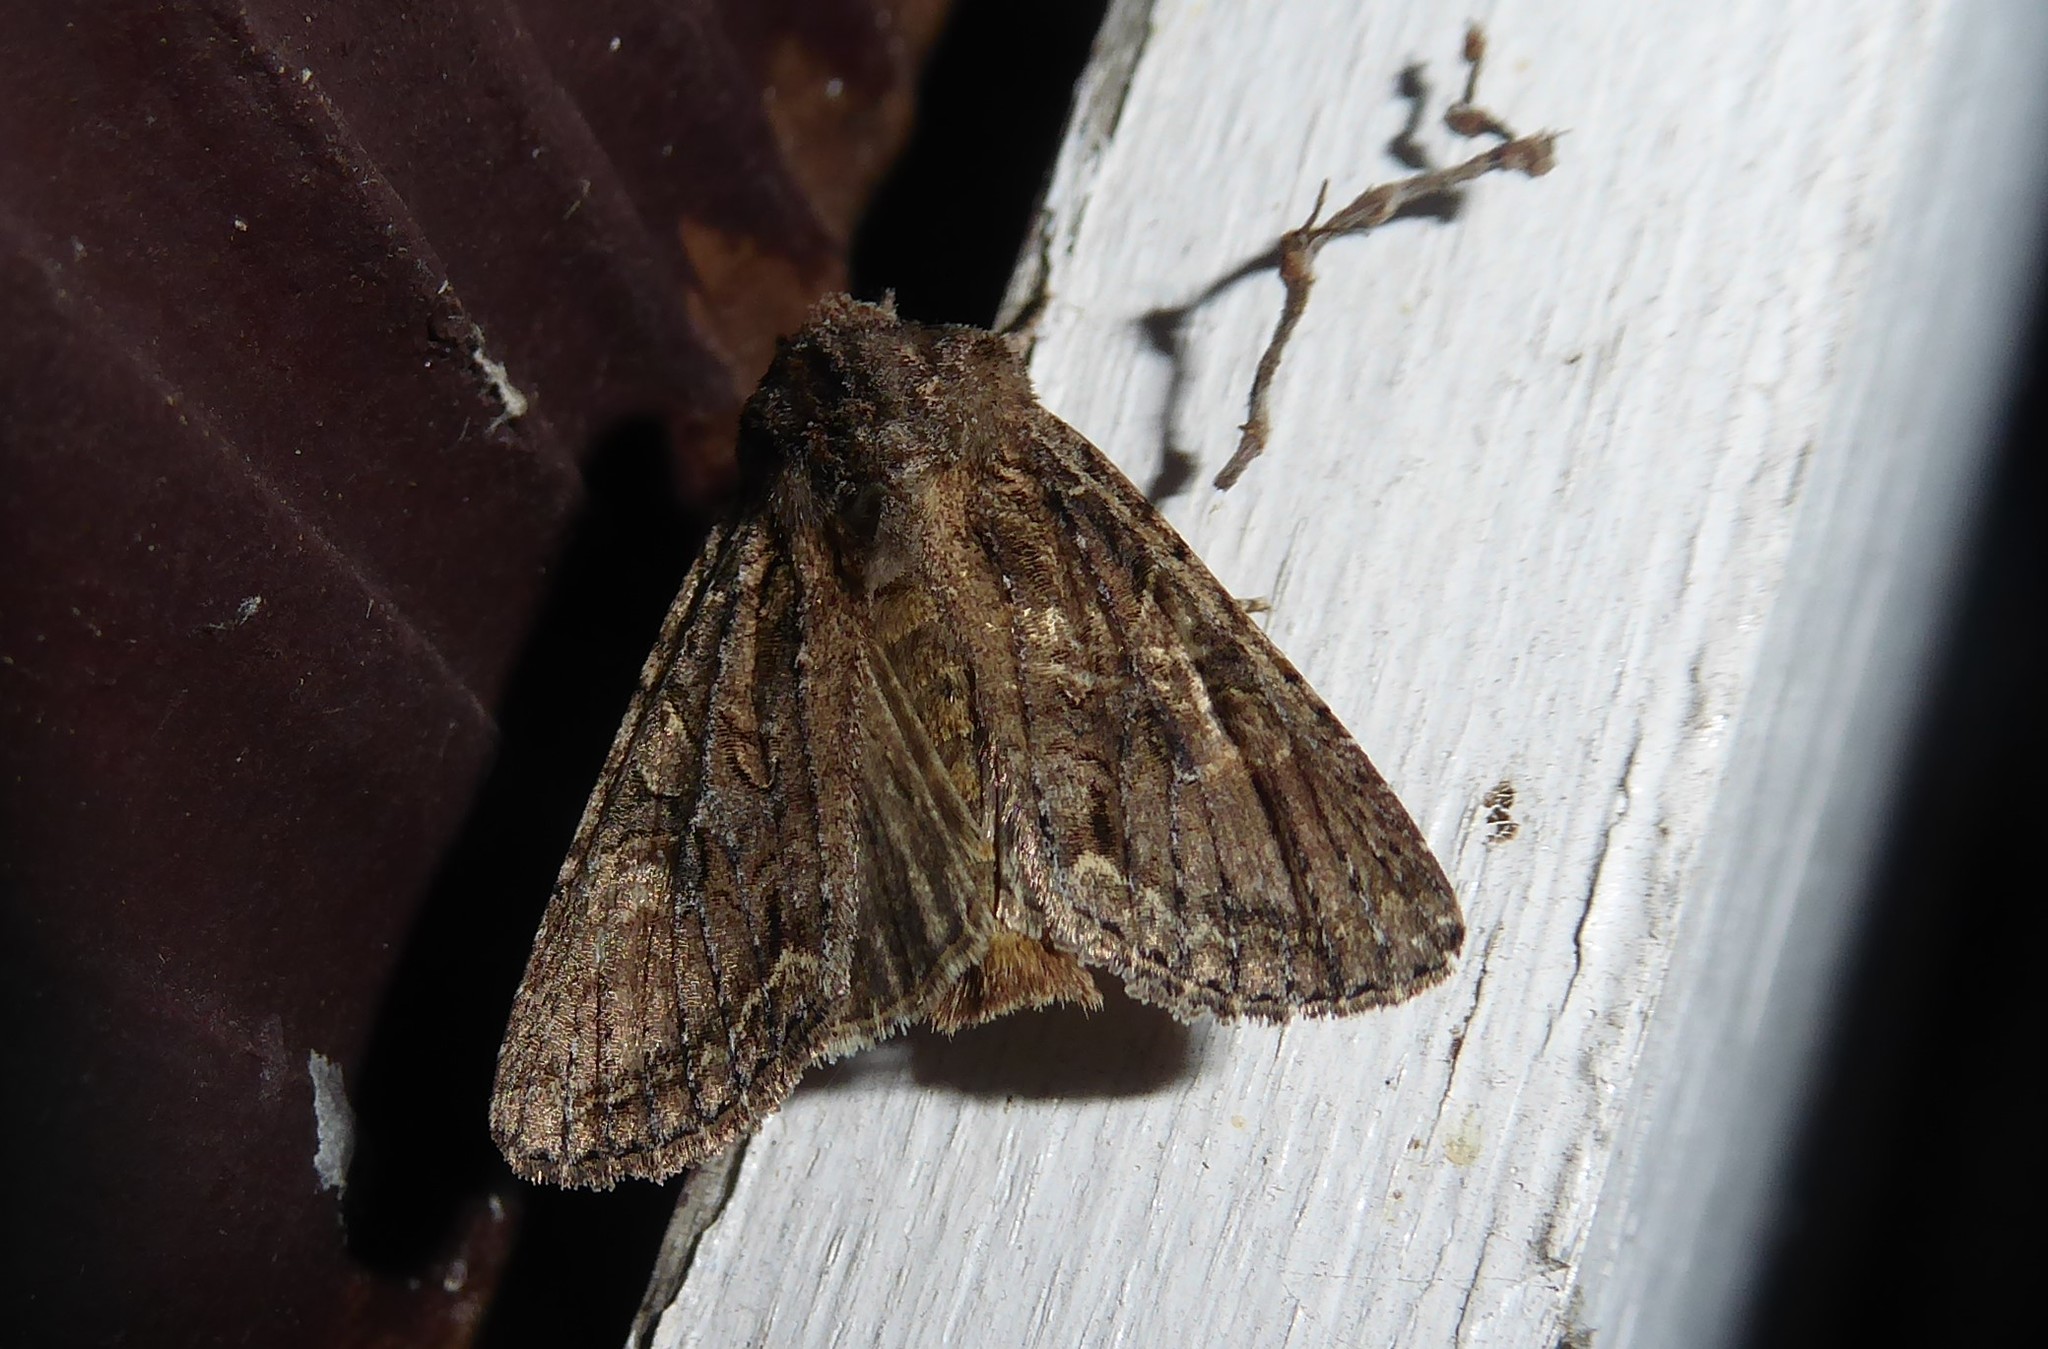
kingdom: Animalia
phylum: Arthropoda
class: Insecta
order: Lepidoptera
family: Noctuidae
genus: Ichneutica
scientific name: Ichneutica mutans
